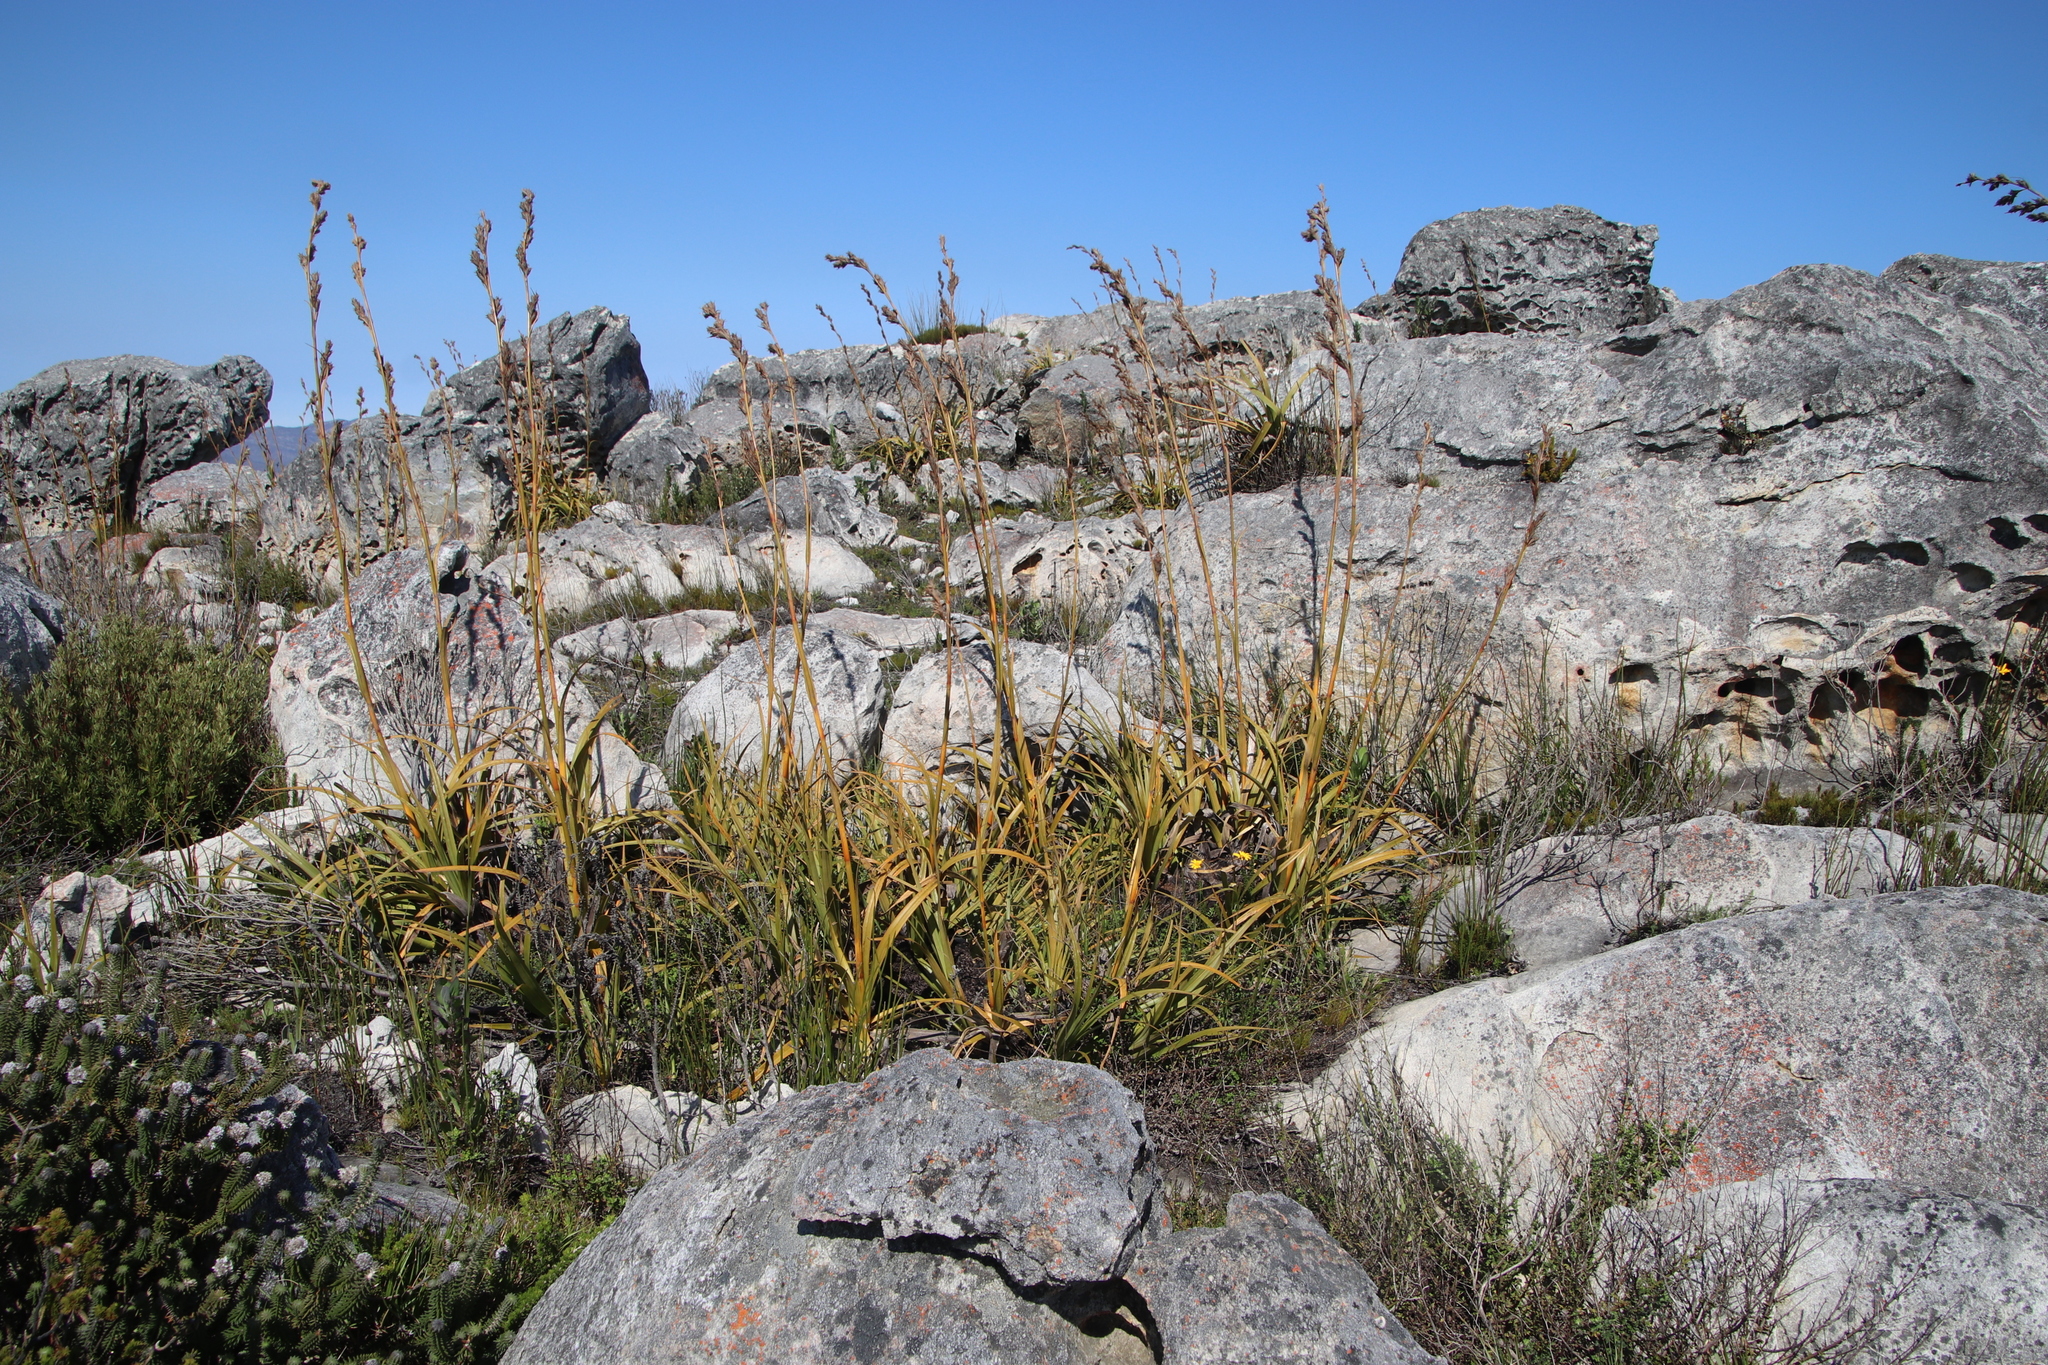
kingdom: Plantae
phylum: Tracheophyta
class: Liliopsida
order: Poales
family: Cyperaceae
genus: Tetraria
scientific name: Tetraria thermalis
